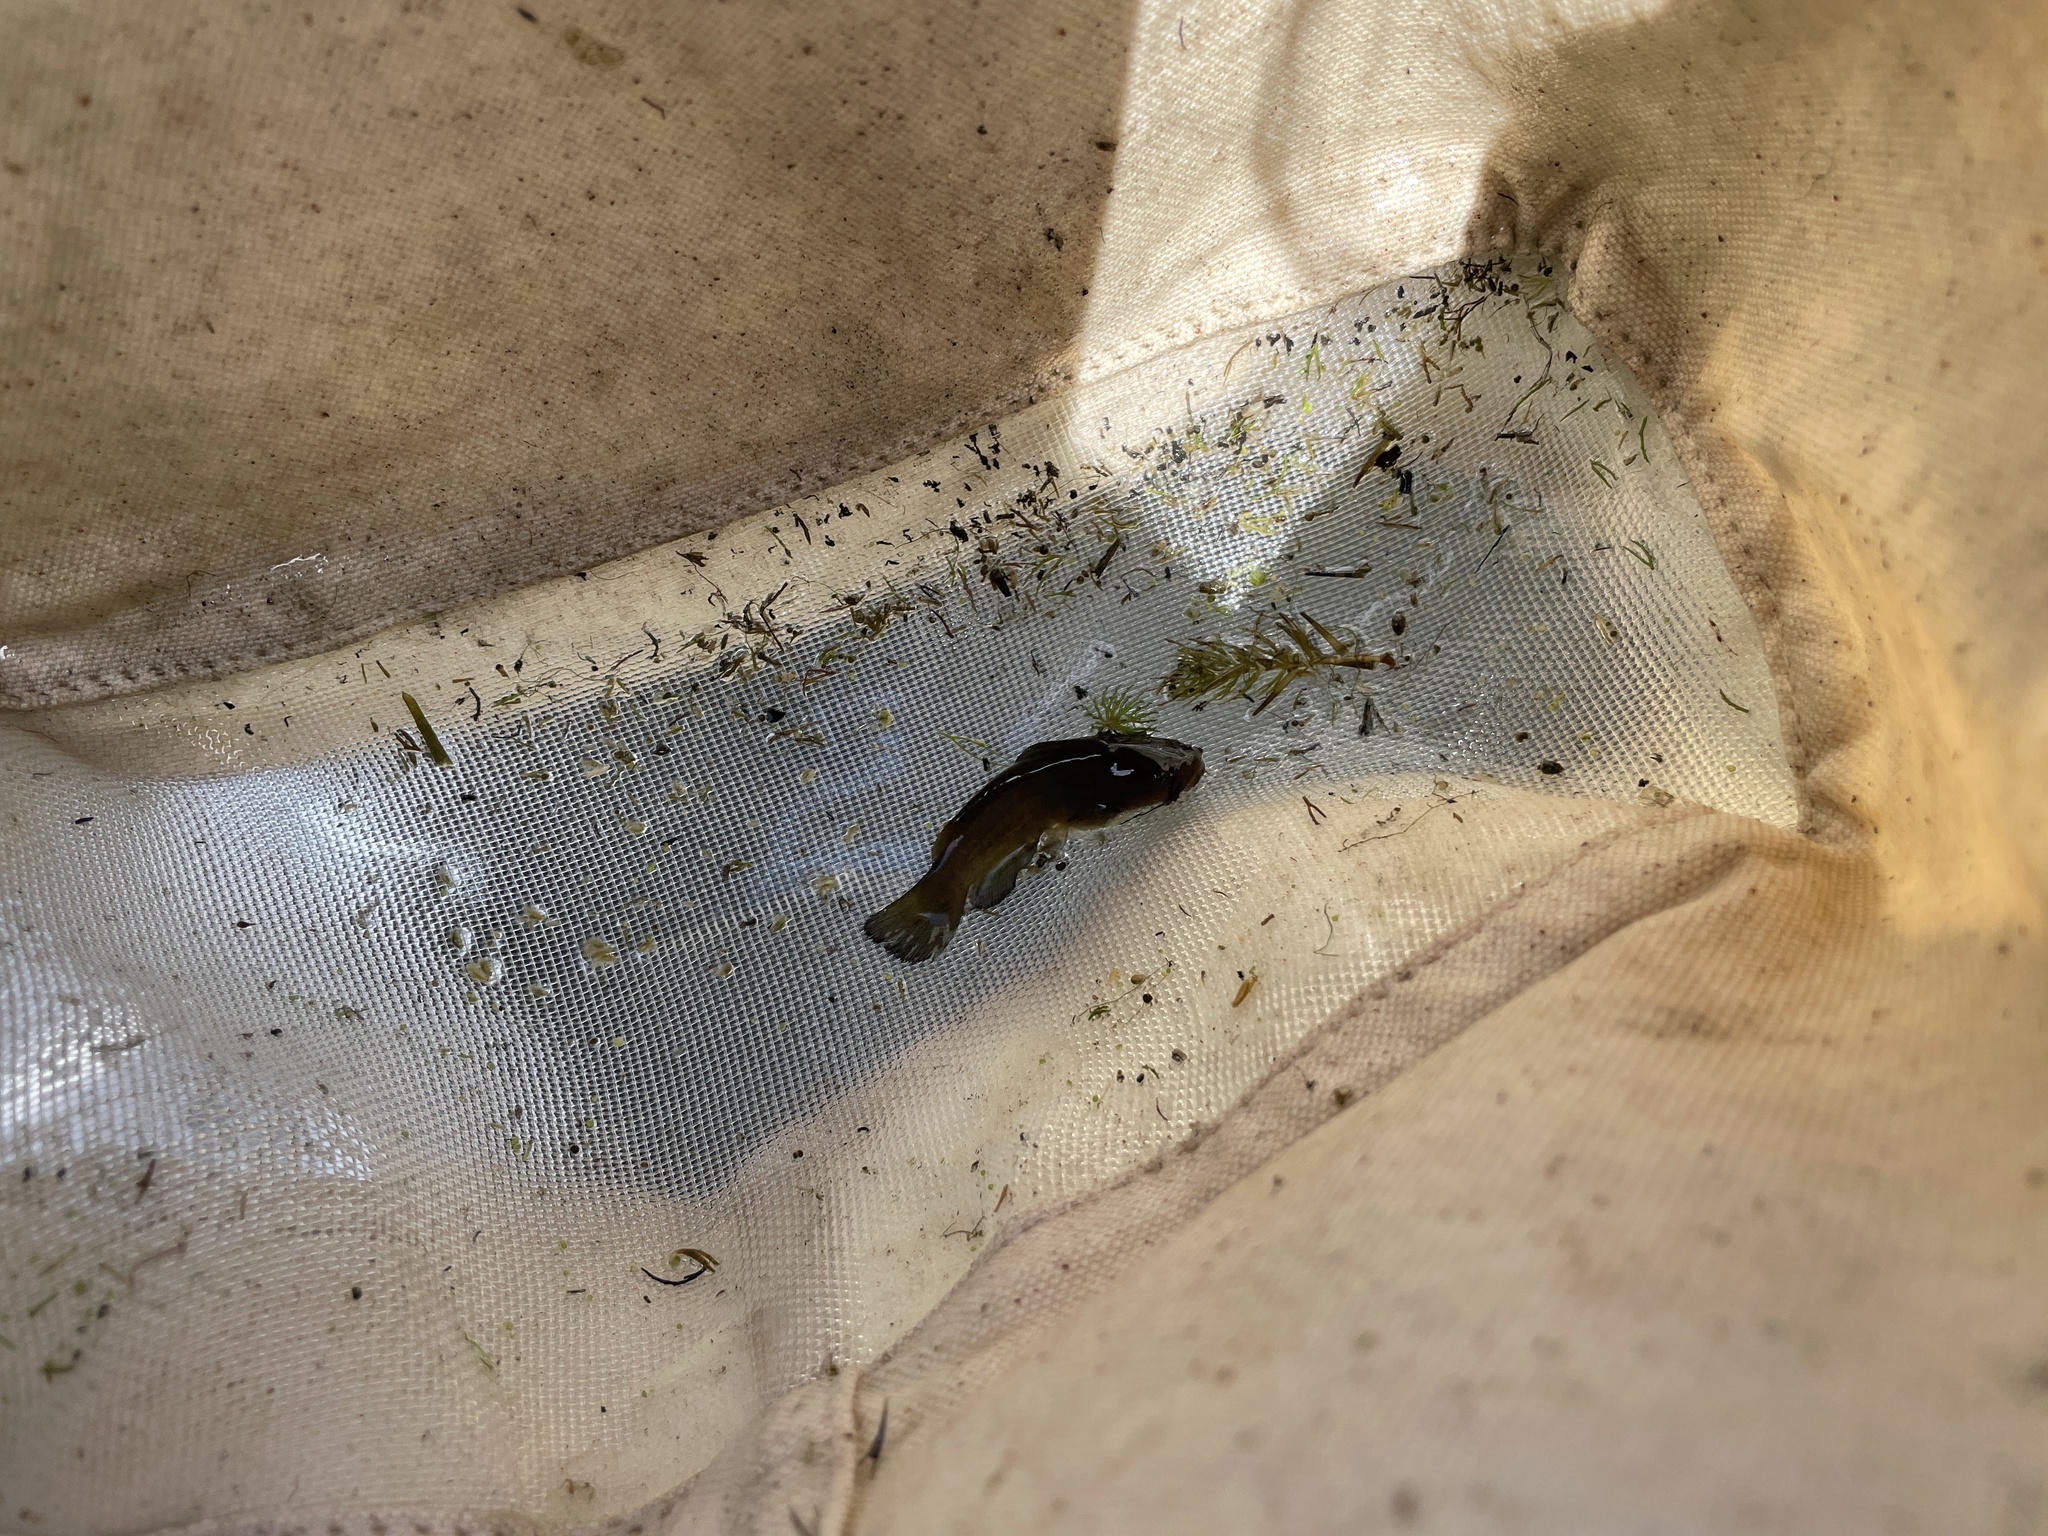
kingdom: Animalia
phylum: Chordata
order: Siluriformes
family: Ictaluridae
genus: Ameiurus
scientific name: Ameiurus
